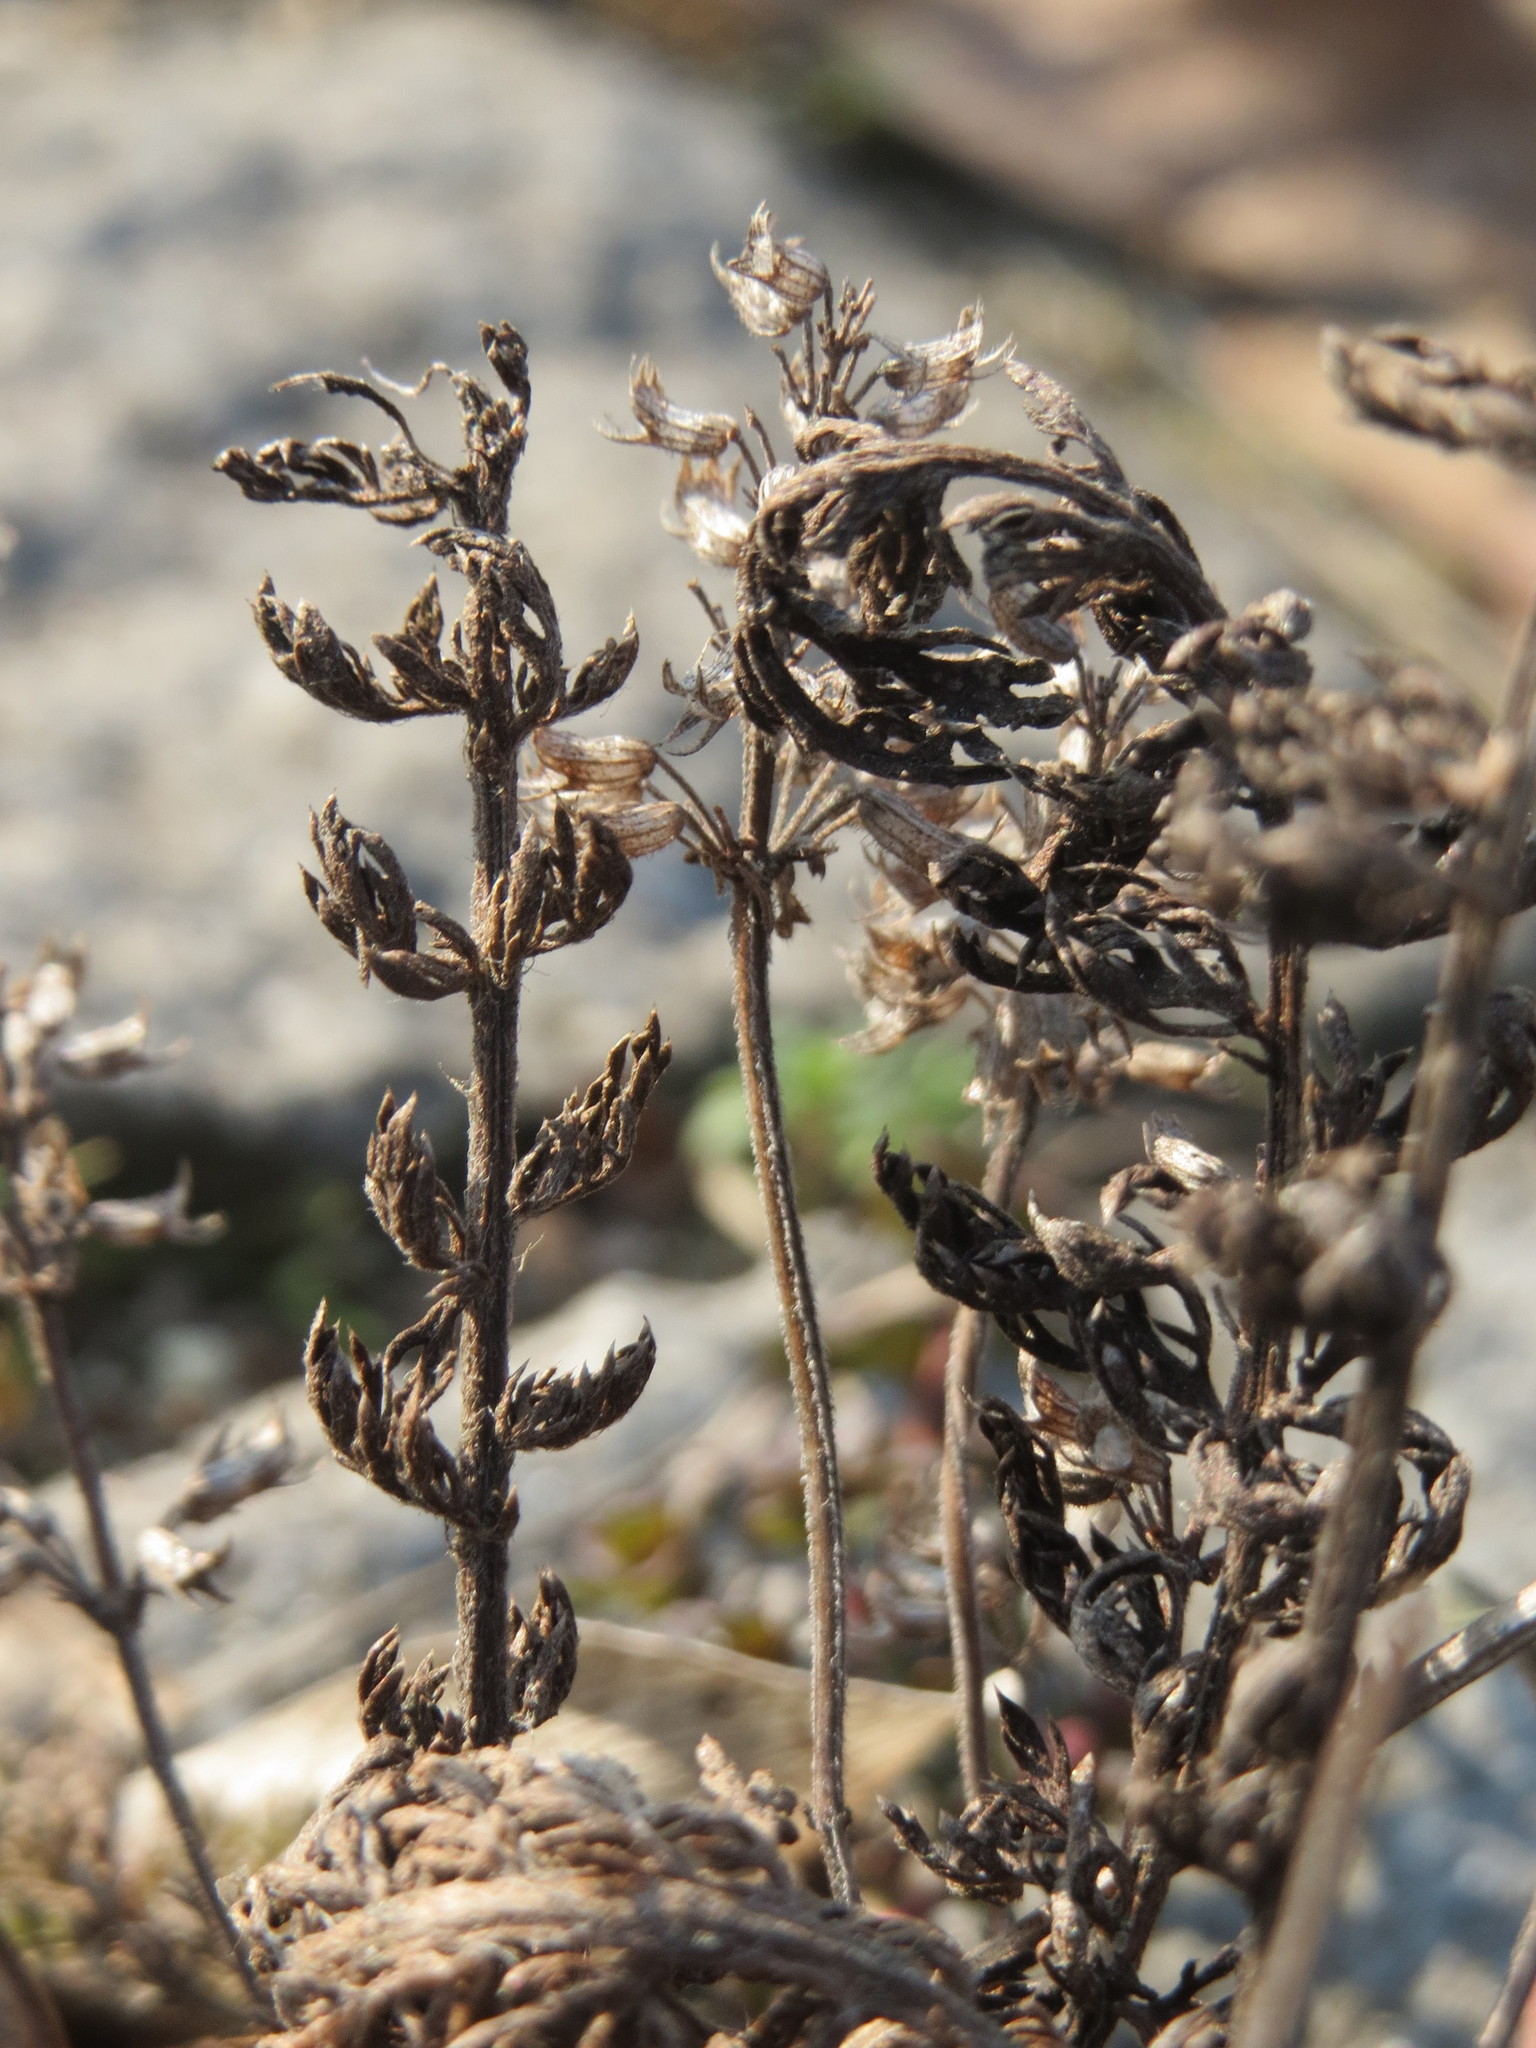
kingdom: Plantae
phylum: Tracheophyta
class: Magnoliopsida
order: Lamiales
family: Lamiaceae
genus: Thymus
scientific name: Thymus pulegioides
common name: Large thyme
